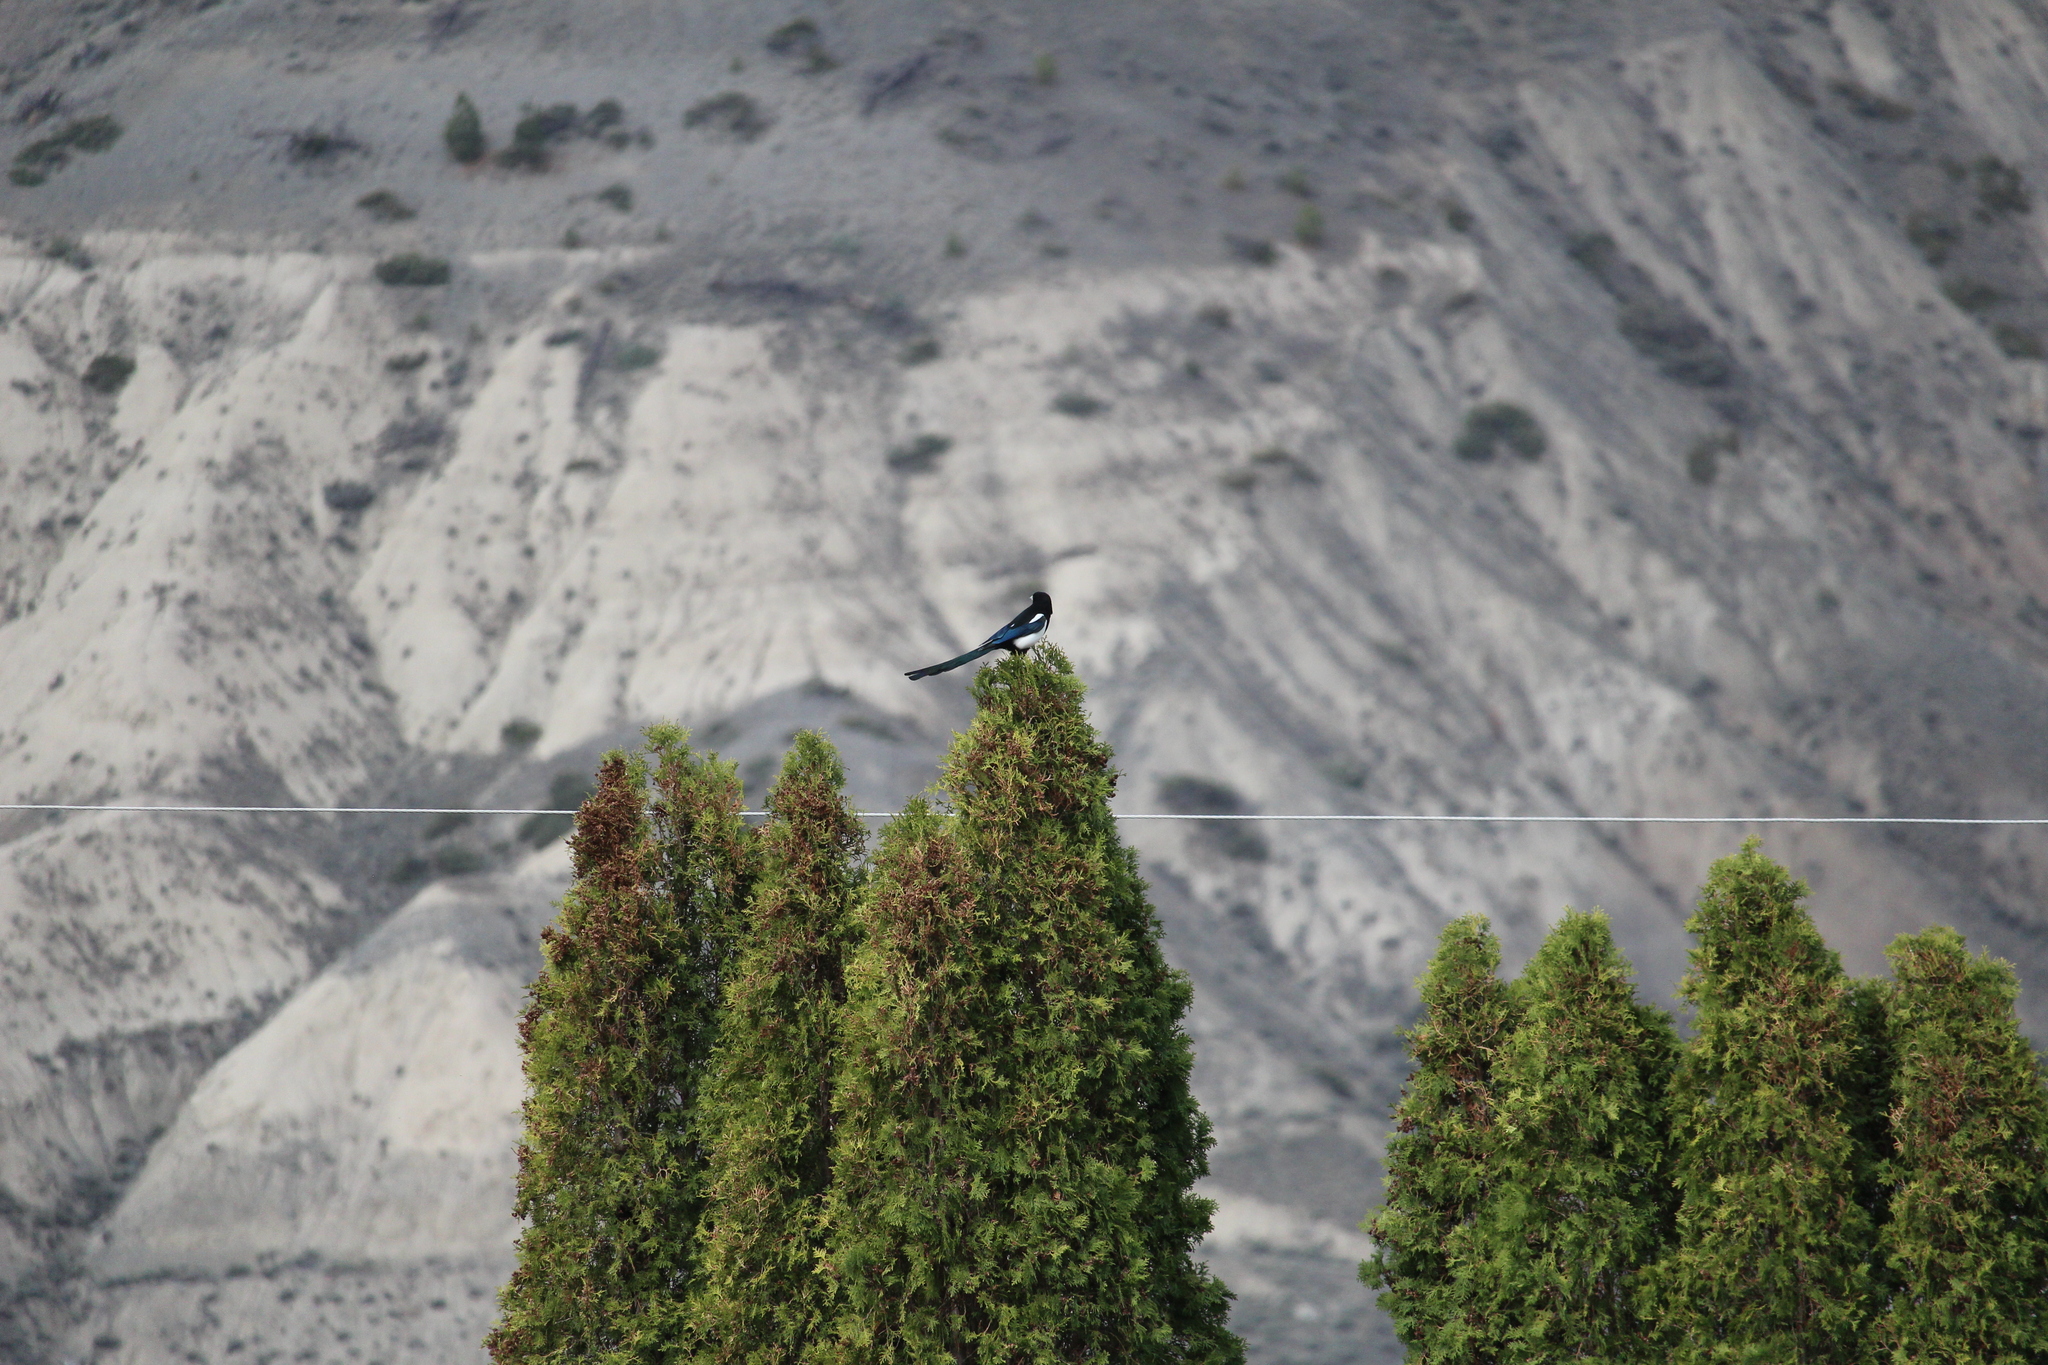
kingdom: Animalia
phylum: Chordata
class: Aves
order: Passeriformes
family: Corvidae
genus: Pica
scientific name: Pica hudsonia
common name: Black-billed magpie
